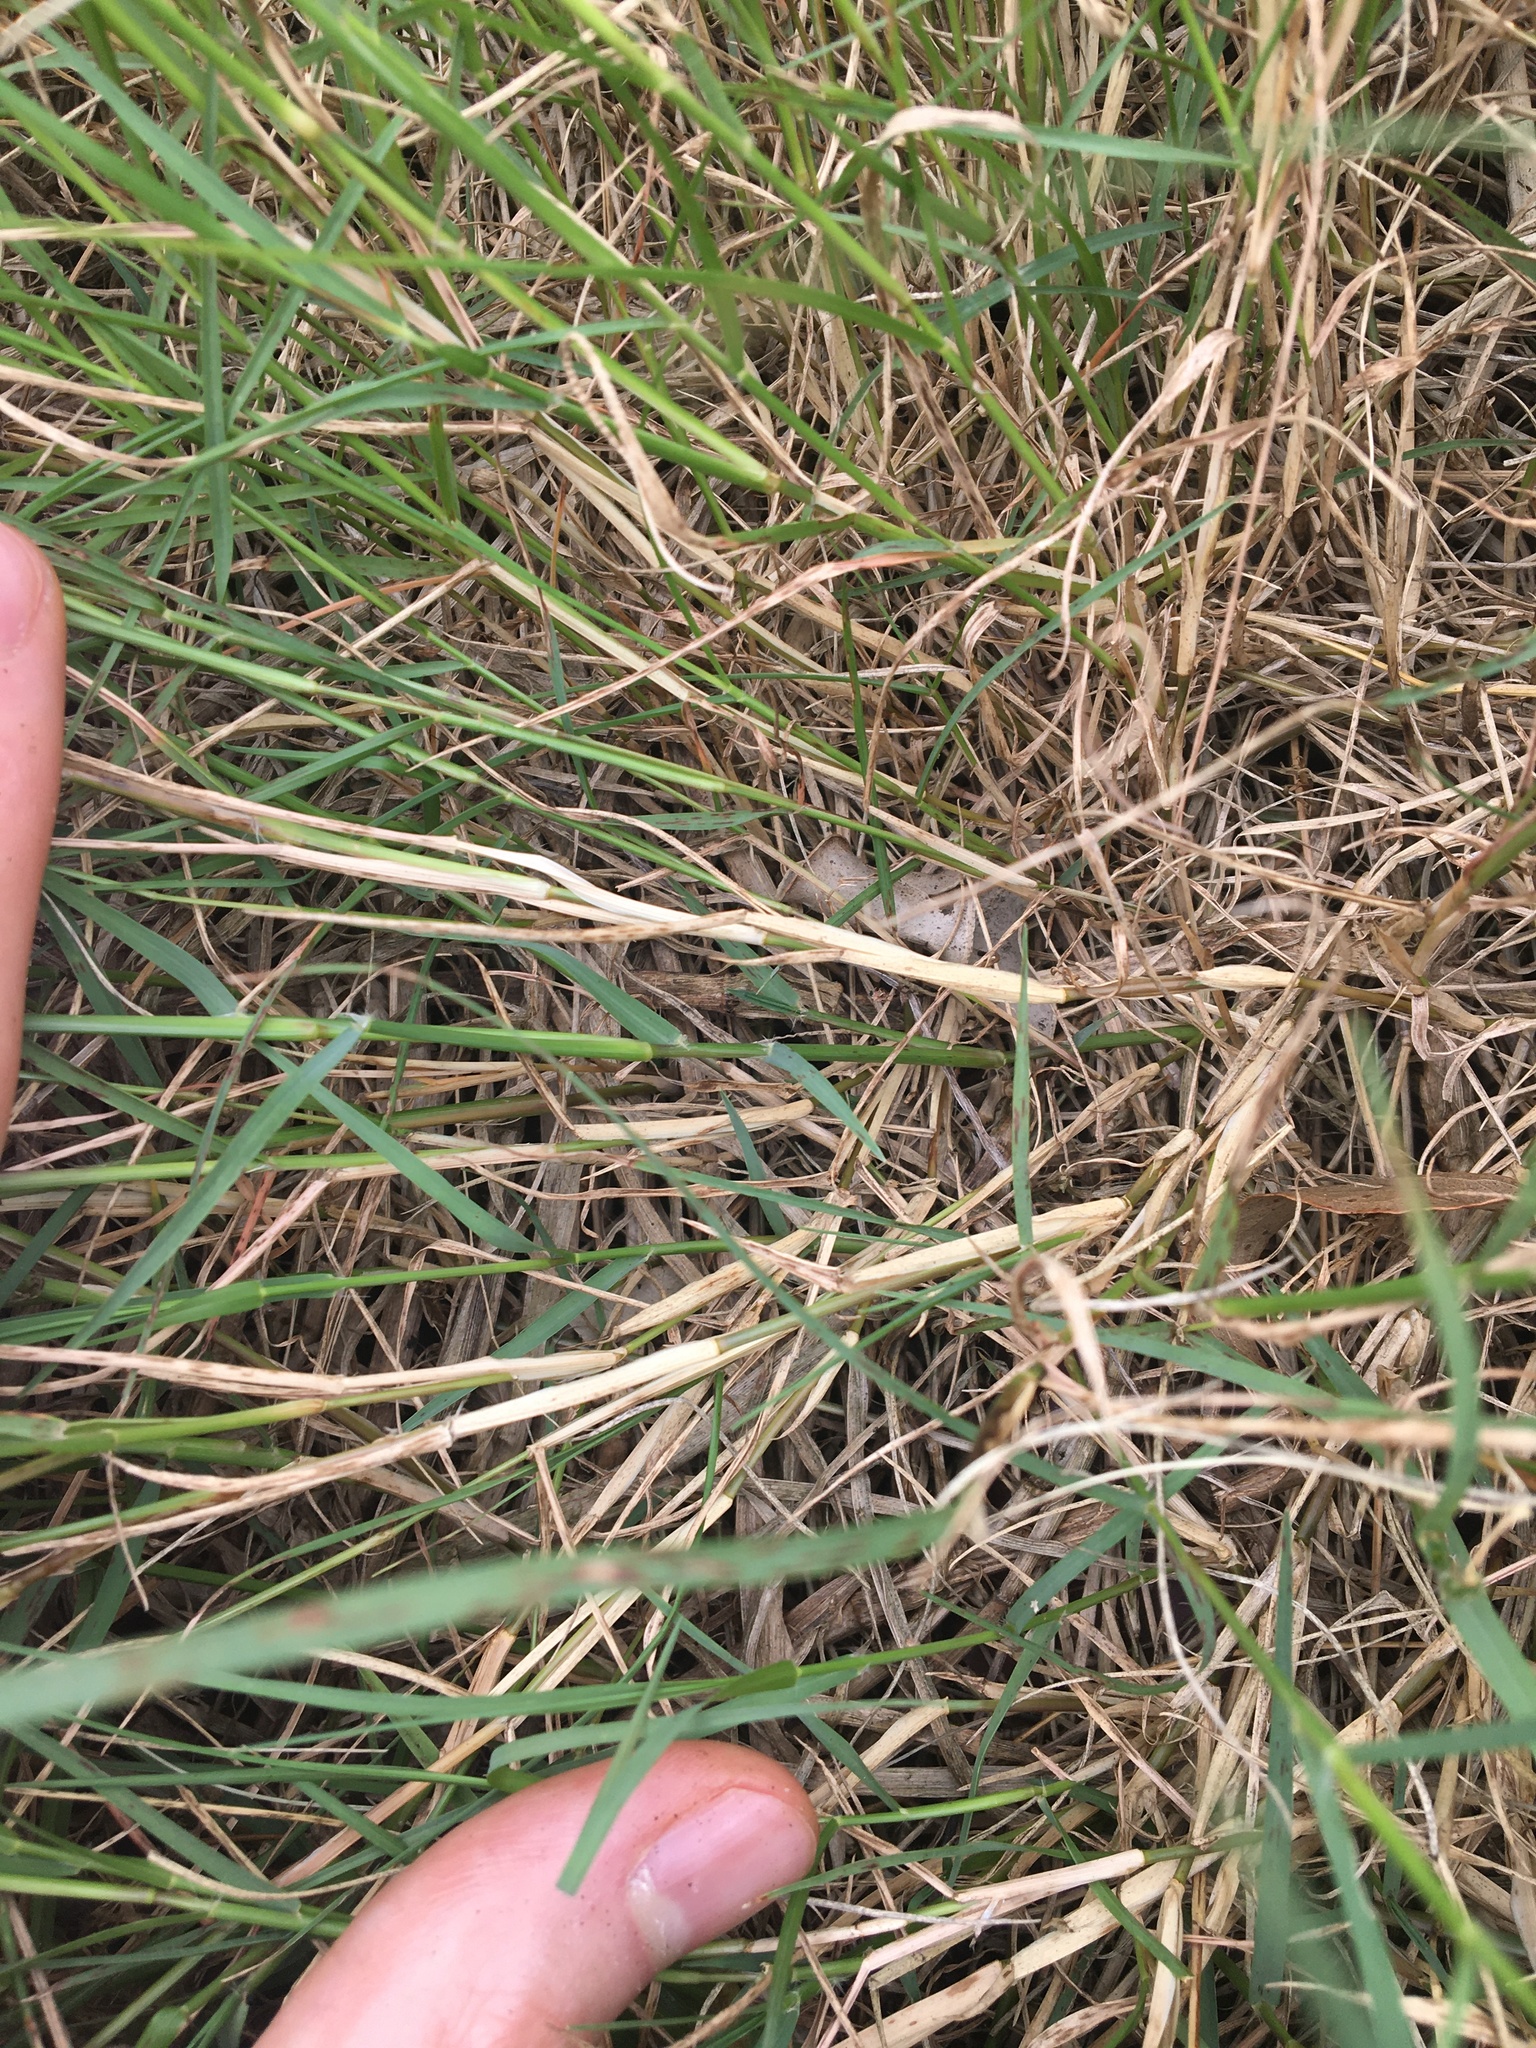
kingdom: Plantae
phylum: Tracheophyta
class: Liliopsida
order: Poales
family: Poaceae
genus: Cynodon
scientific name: Cynodon dactylon
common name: Bermuda grass
